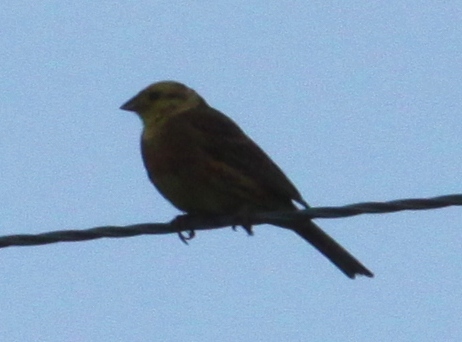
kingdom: Animalia
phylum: Chordata
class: Aves
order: Passeriformes
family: Emberizidae
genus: Emberiza
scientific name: Emberiza citrinella
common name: Yellowhammer
